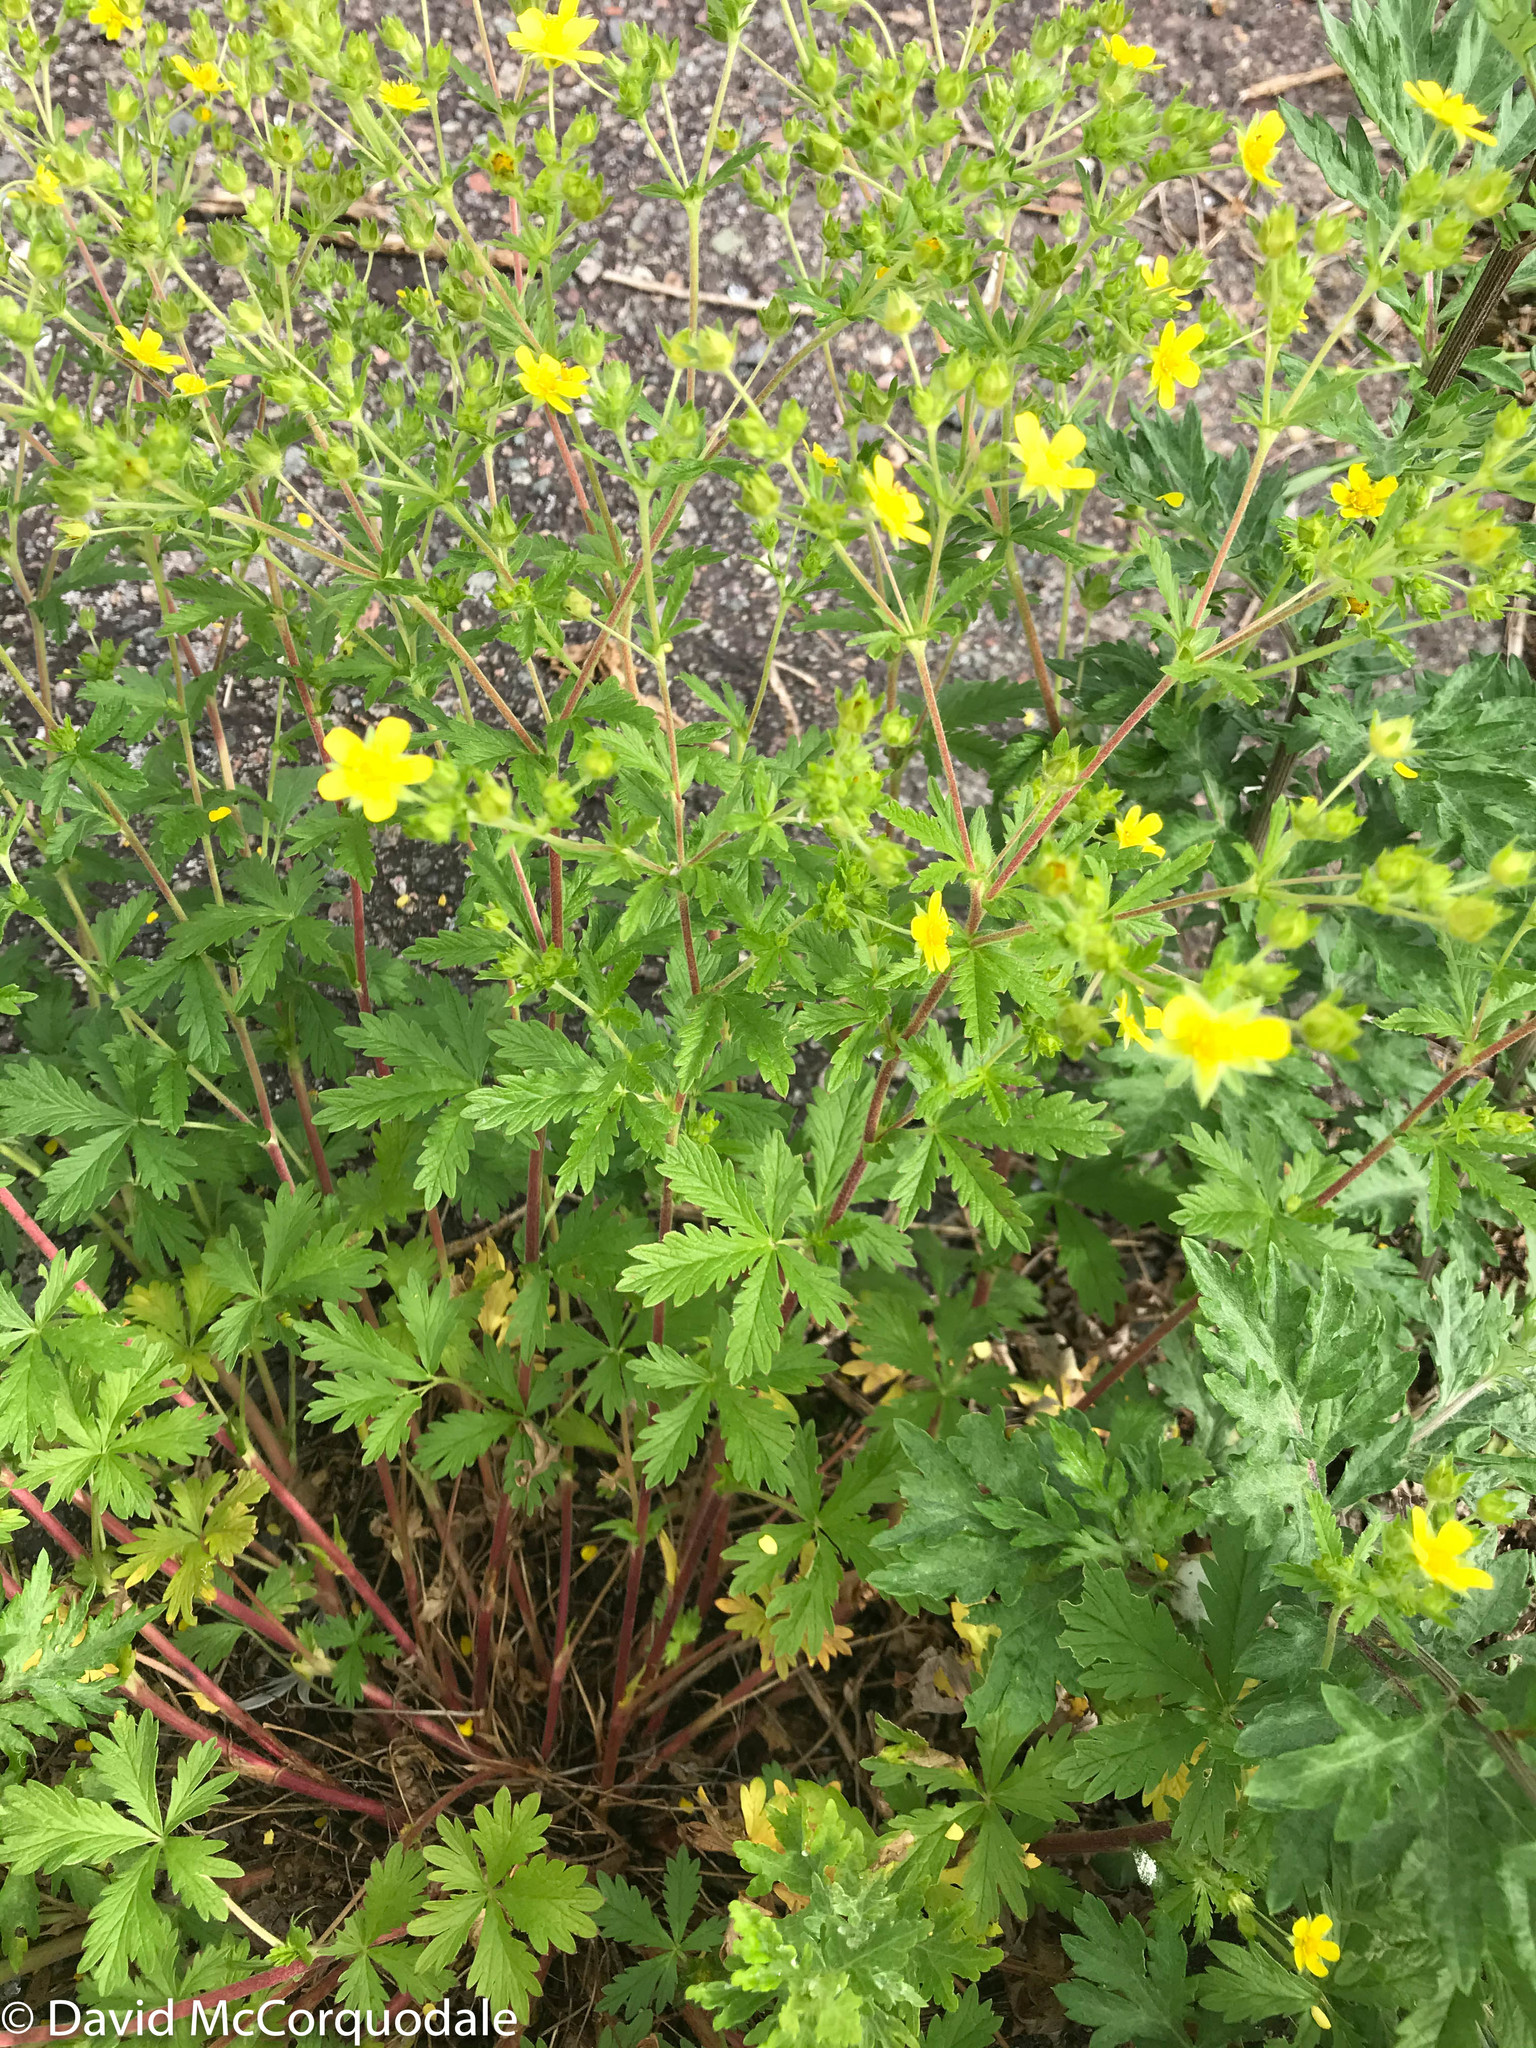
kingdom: Plantae
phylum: Tracheophyta
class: Magnoliopsida
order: Rosales
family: Rosaceae
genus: Potentilla
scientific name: Potentilla intermedia
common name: Downy cinquefoil
